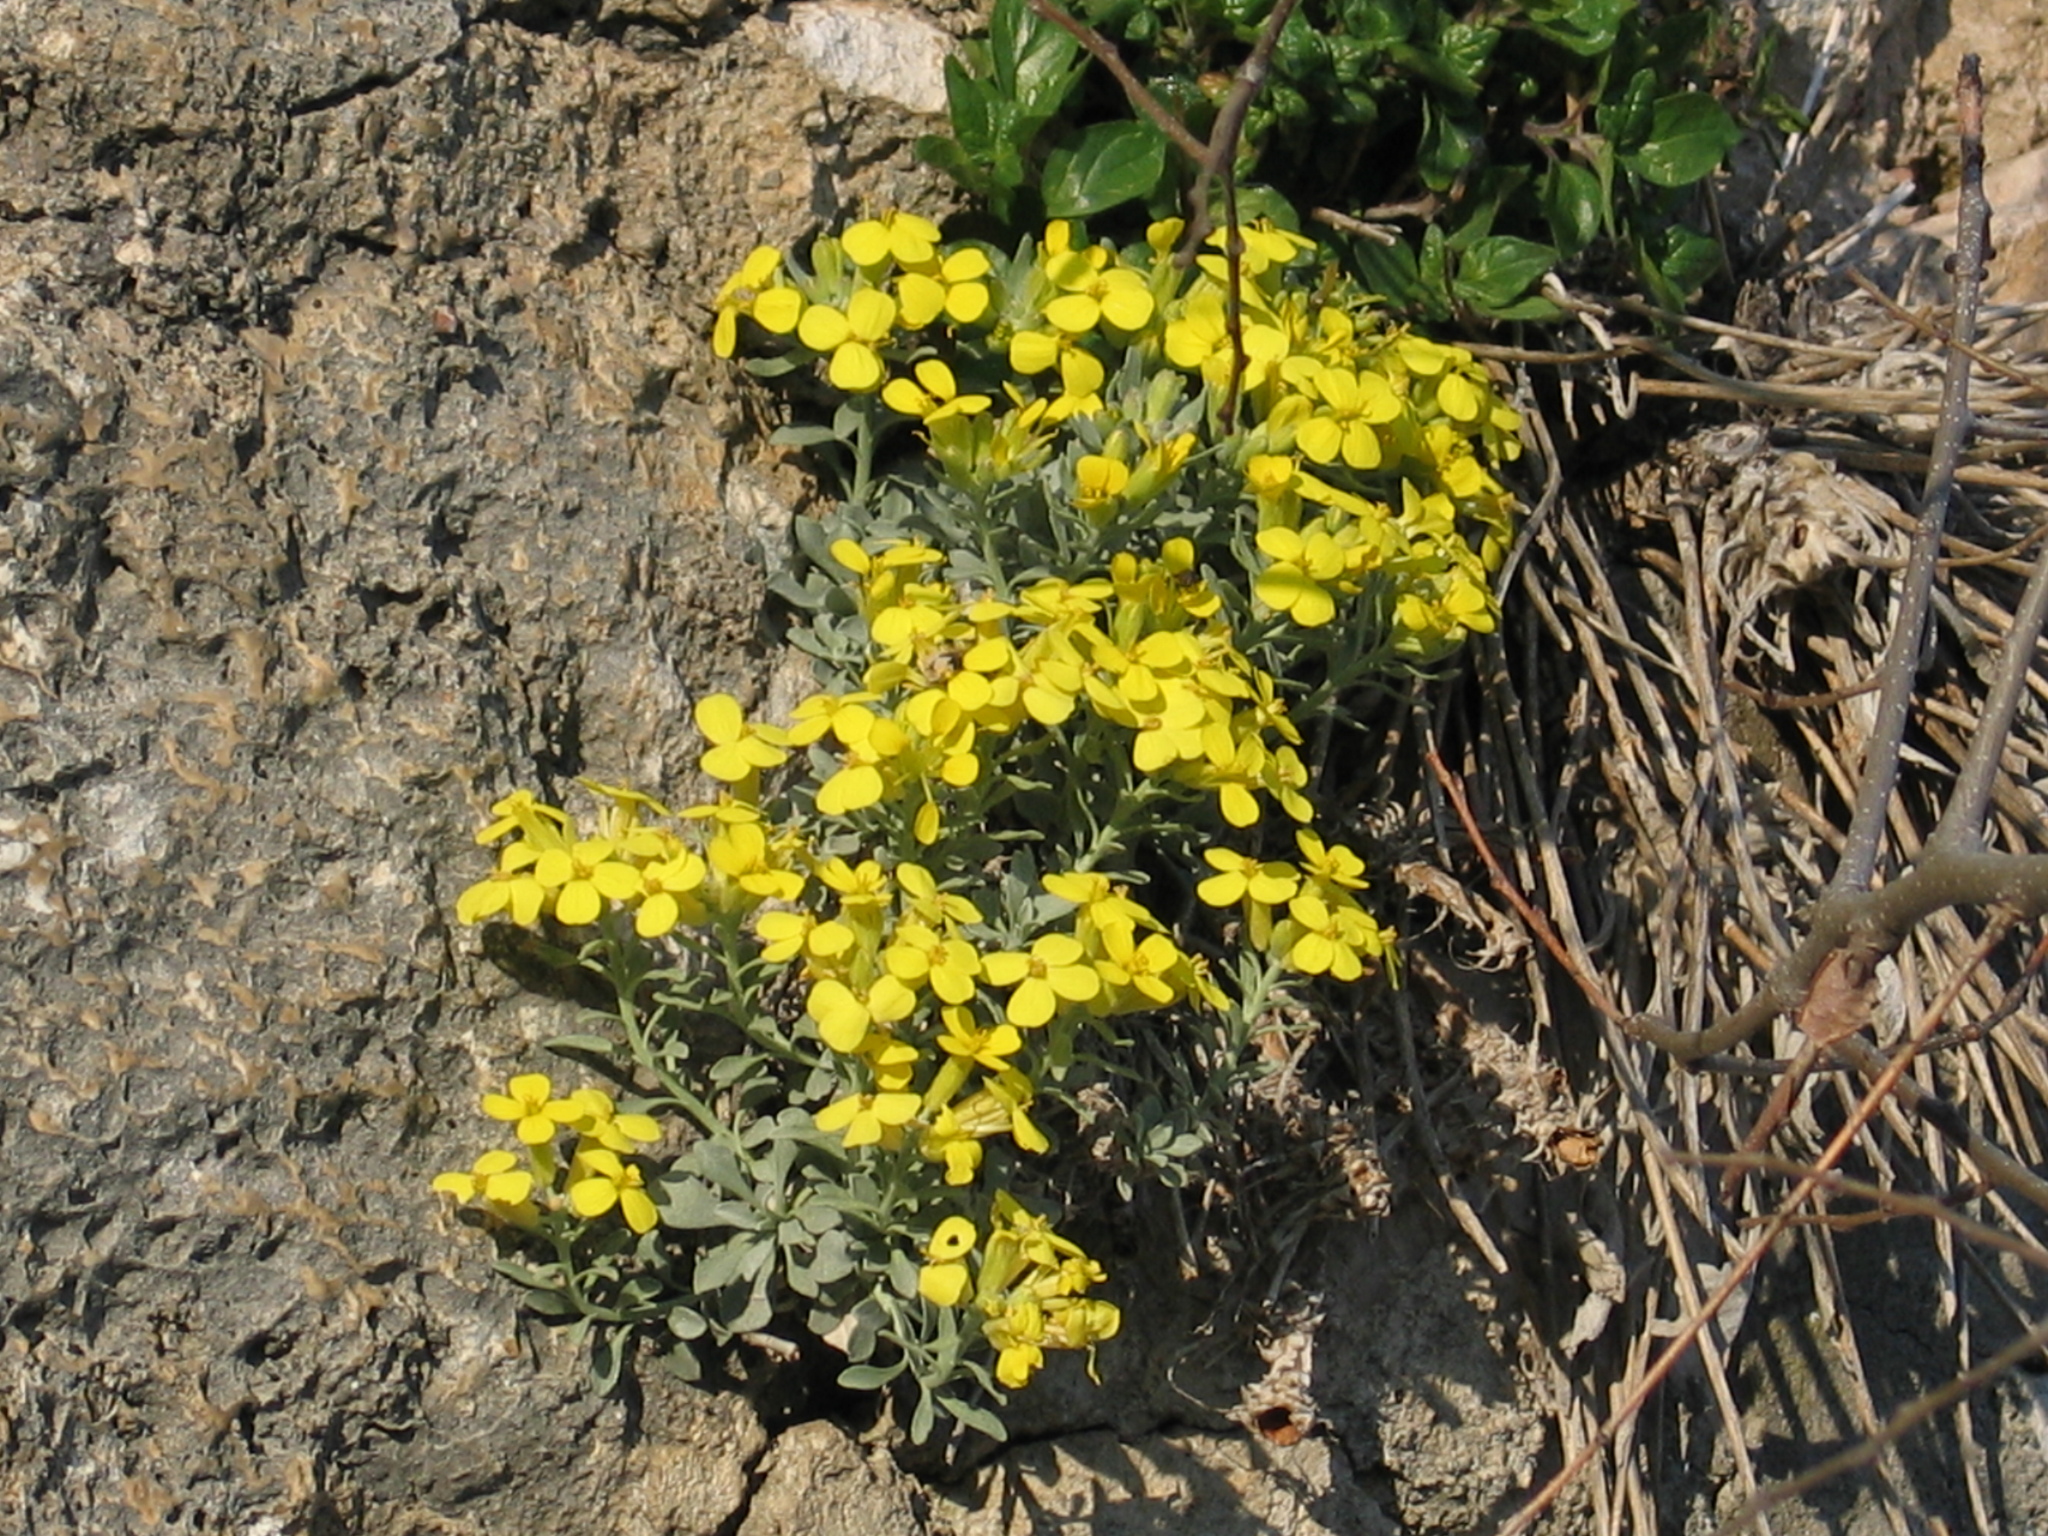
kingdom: Plantae
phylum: Tracheophyta
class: Magnoliopsida
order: Brassicales
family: Brassicaceae
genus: Resetnikia
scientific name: Resetnikia triquetra
